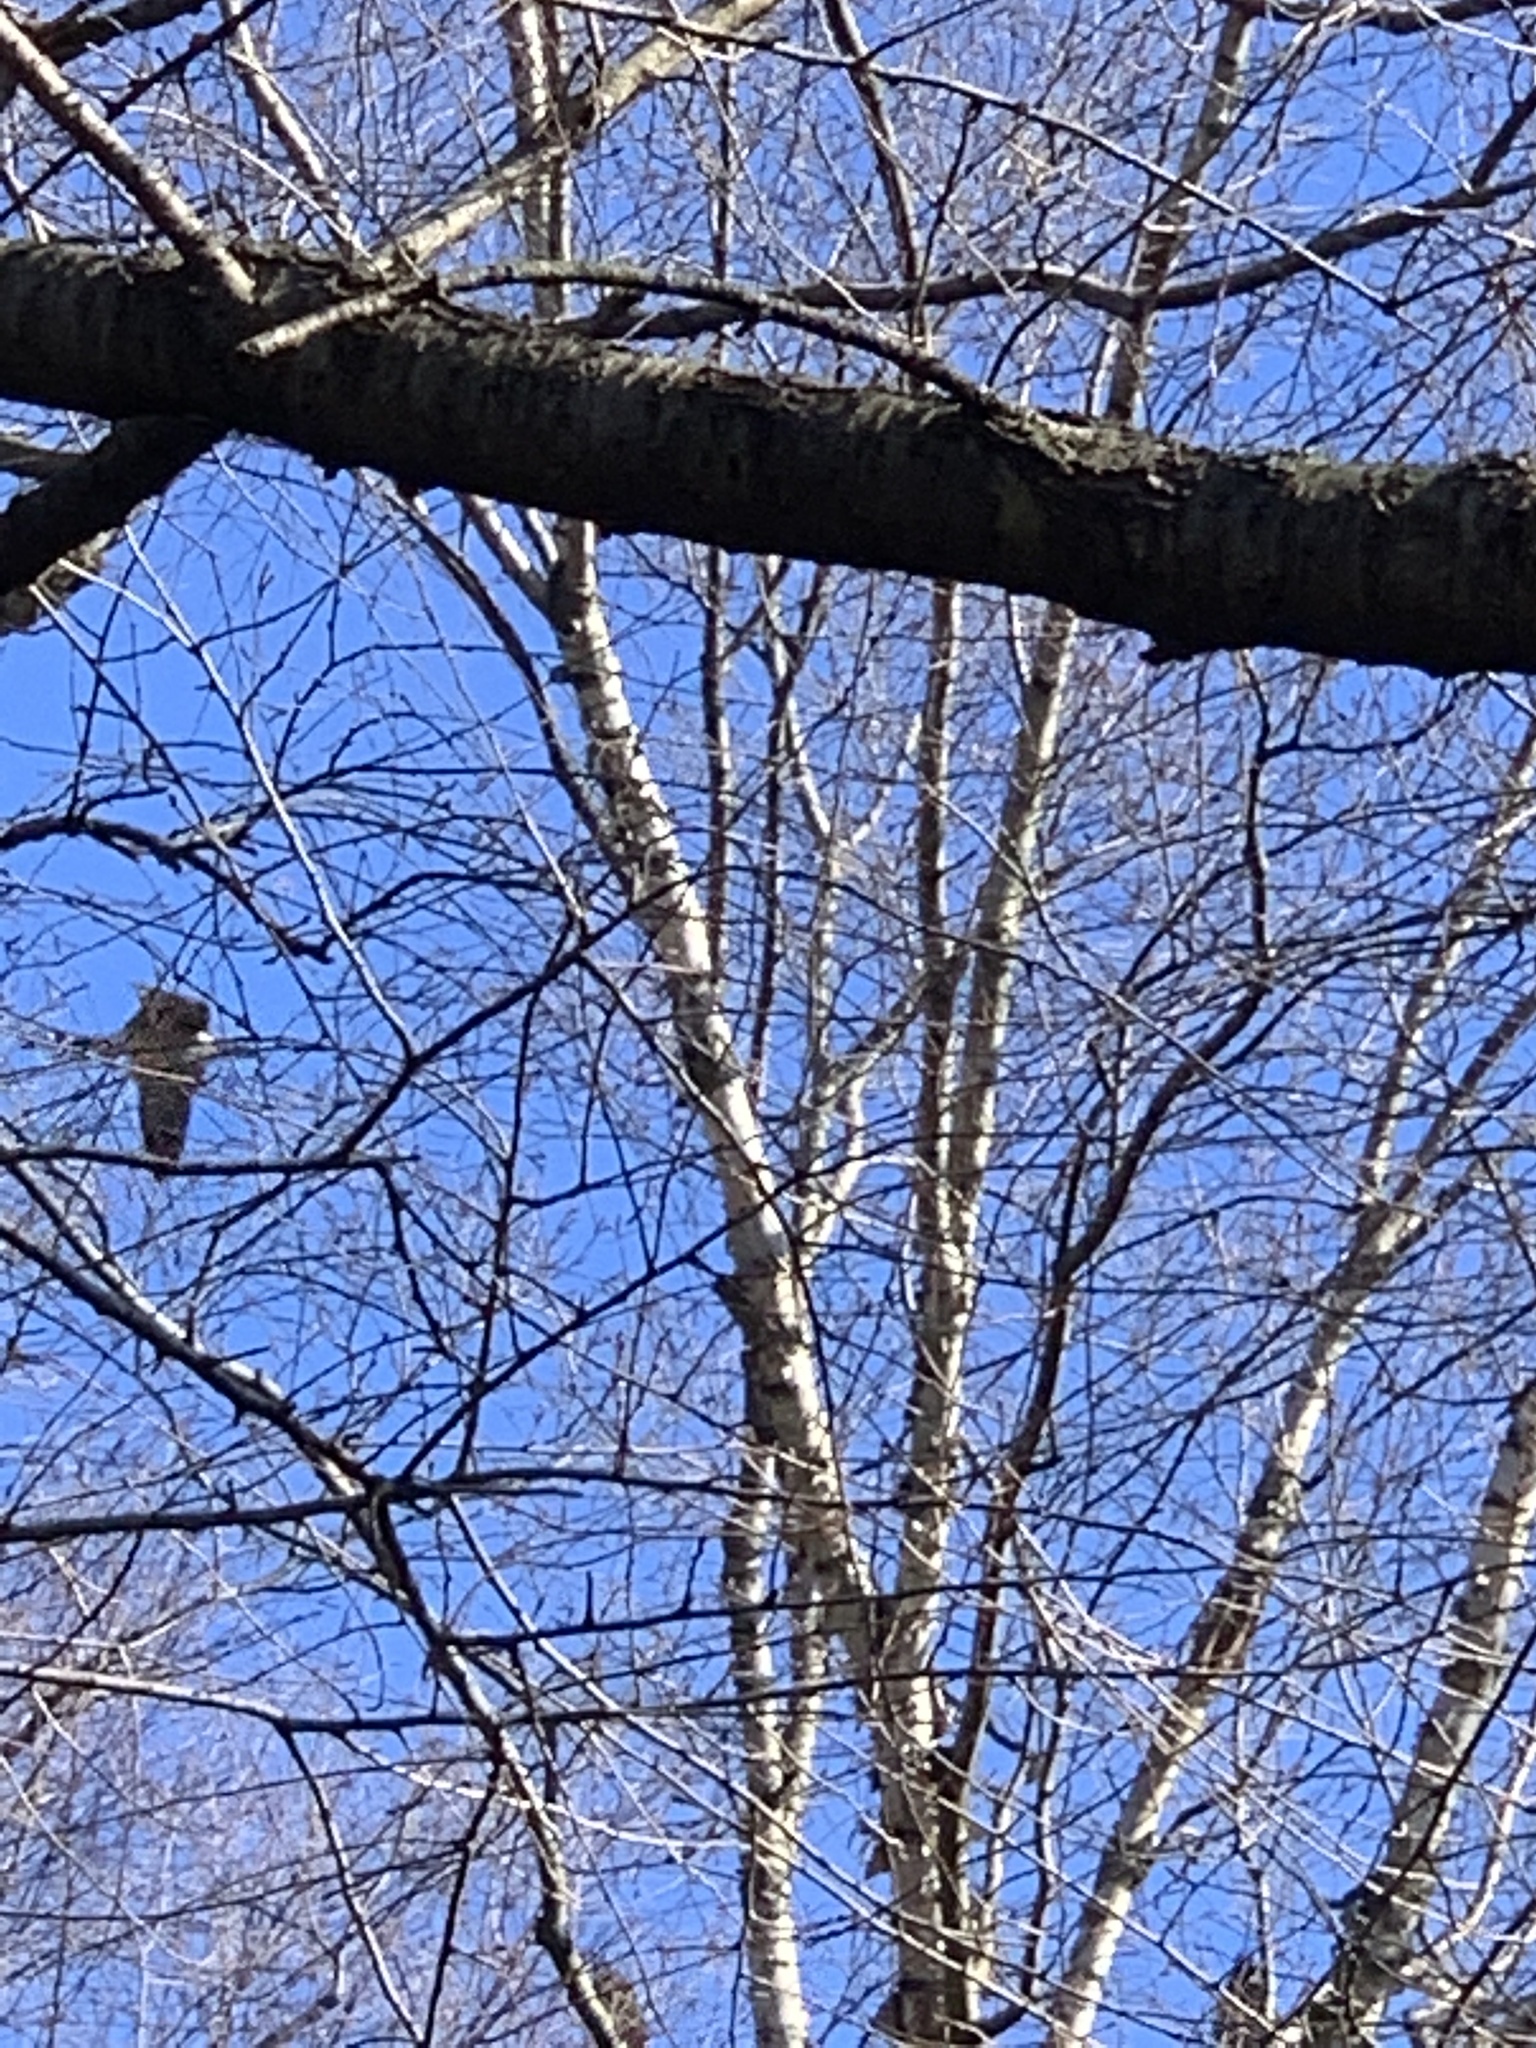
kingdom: Animalia
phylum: Chordata
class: Aves
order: Anseriformes
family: Anatidae
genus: Branta
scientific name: Branta canadensis
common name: Canada goose
